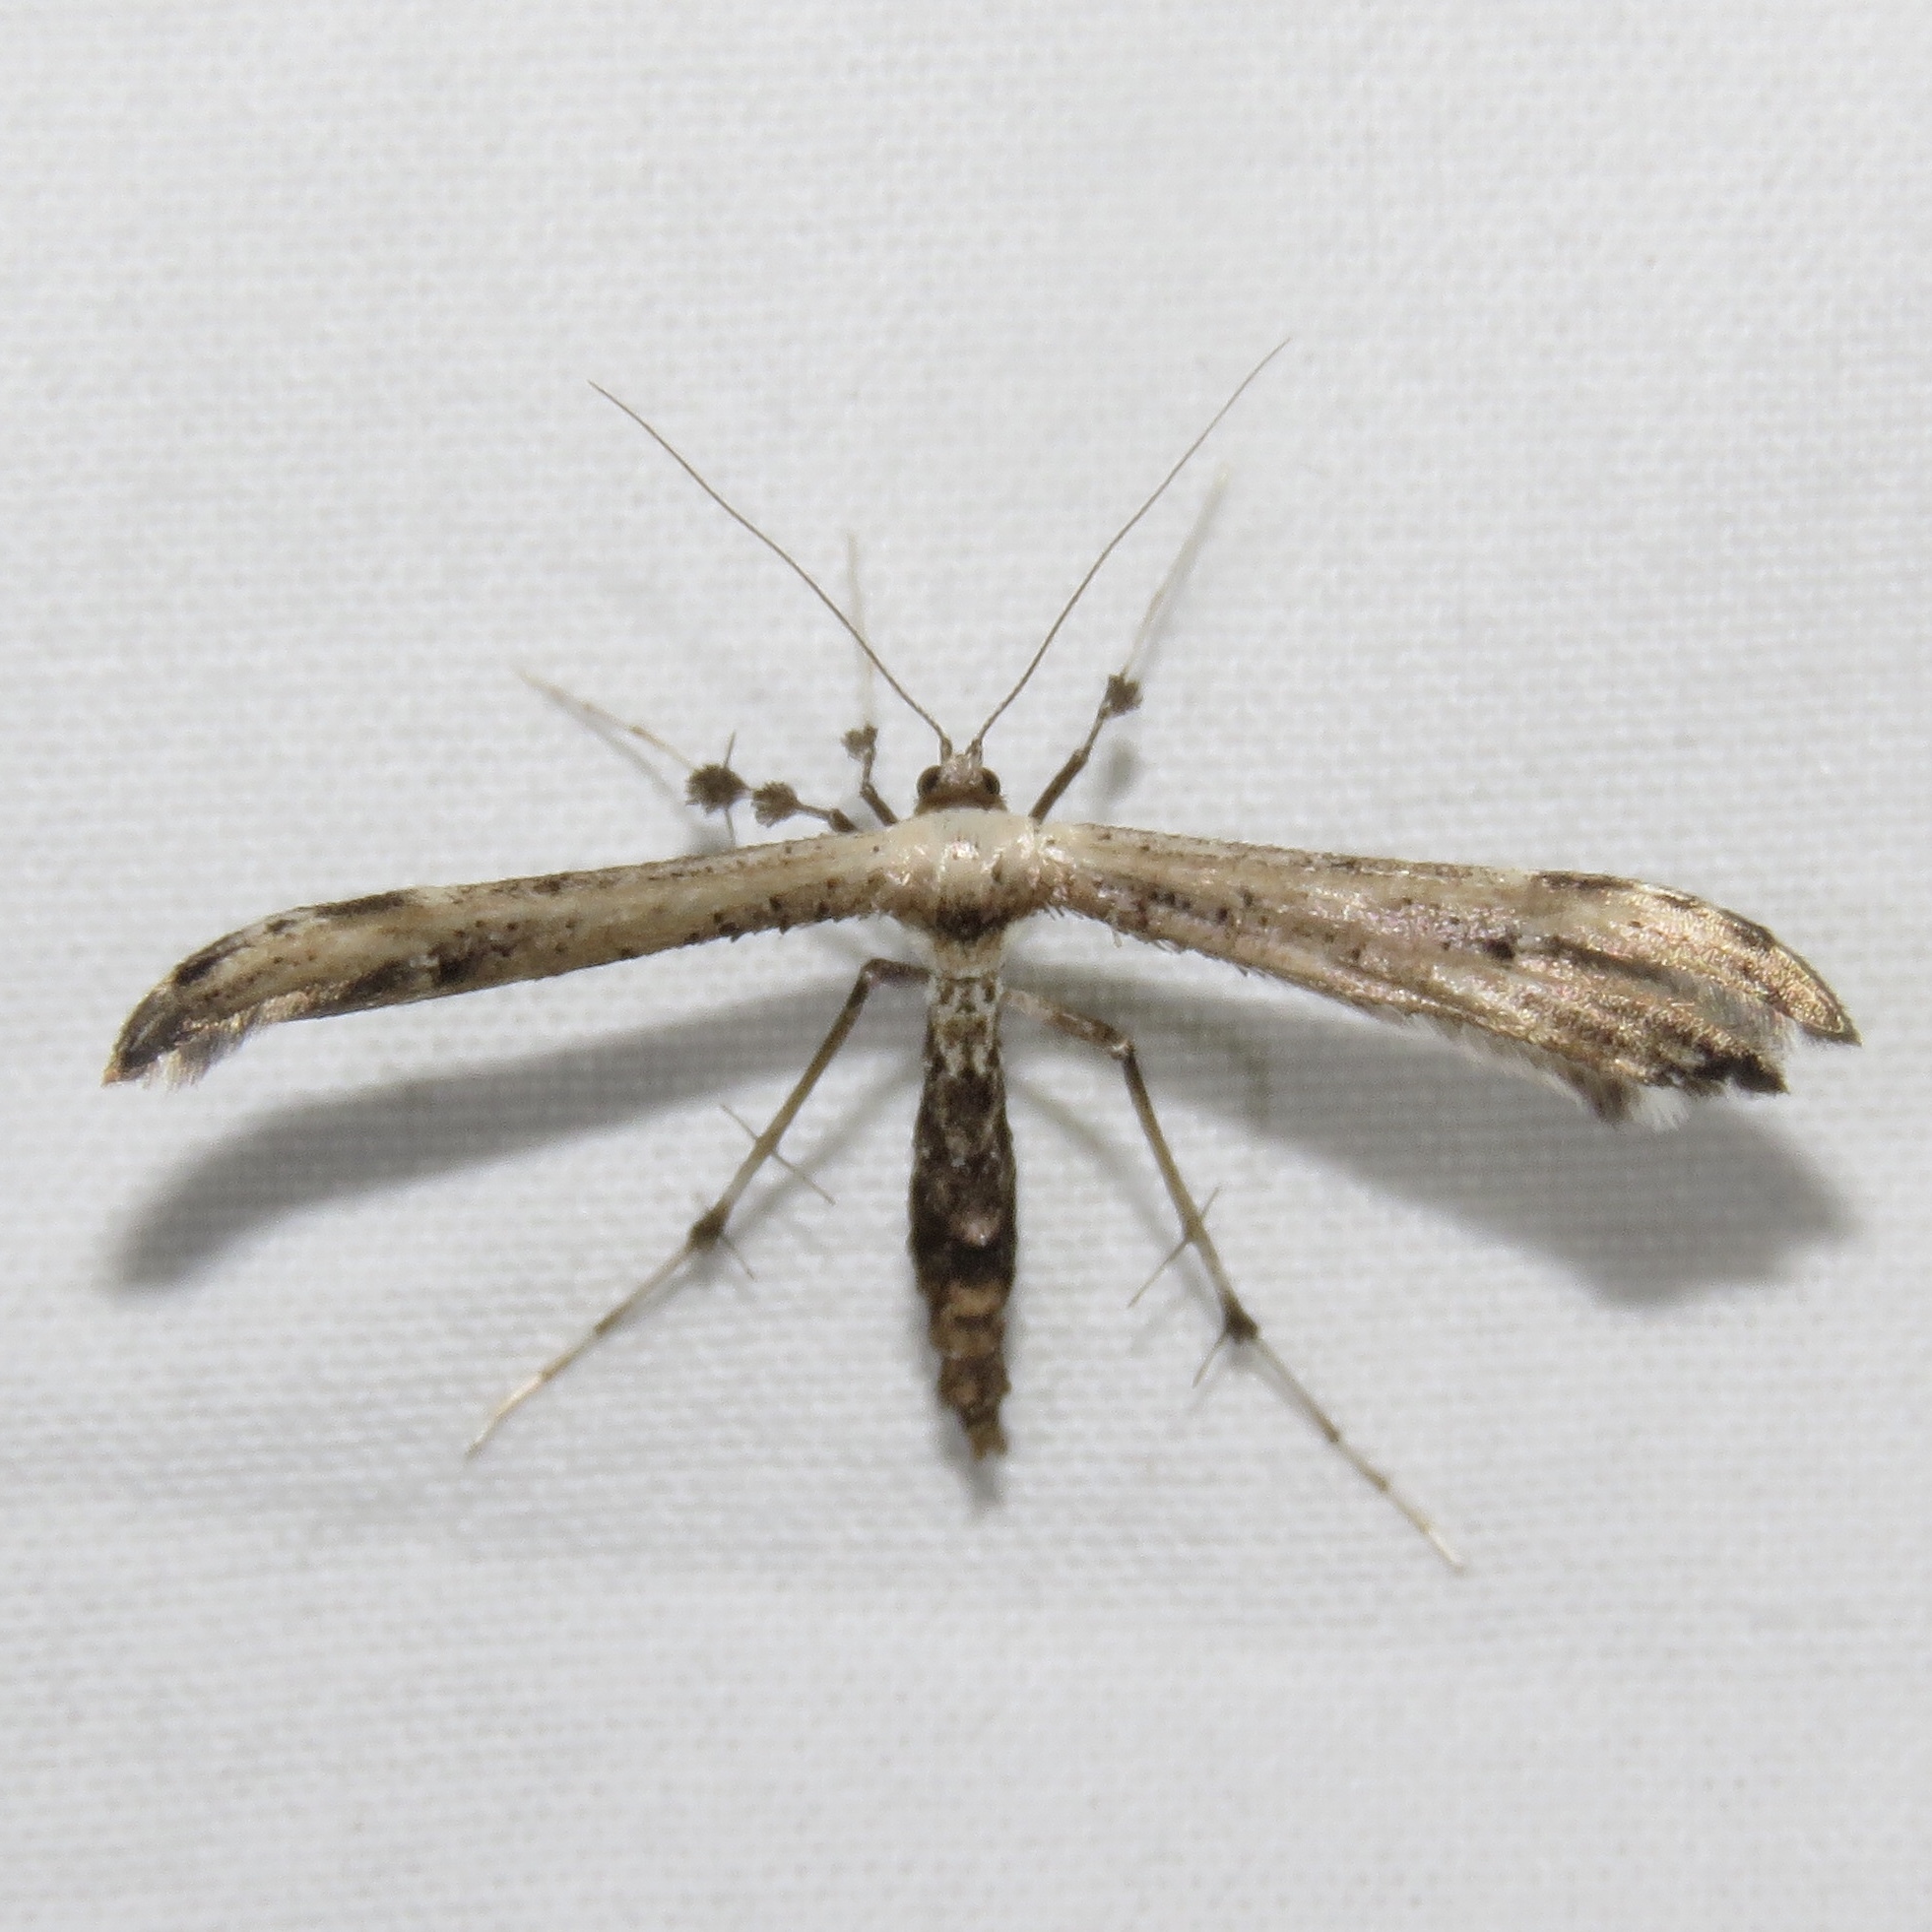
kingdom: Animalia
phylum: Arthropoda
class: Insecta
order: Lepidoptera
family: Pterophoridae
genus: Oidaematophorus
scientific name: Oidaematophorus eupatorii
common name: Eupatorium plume moth
